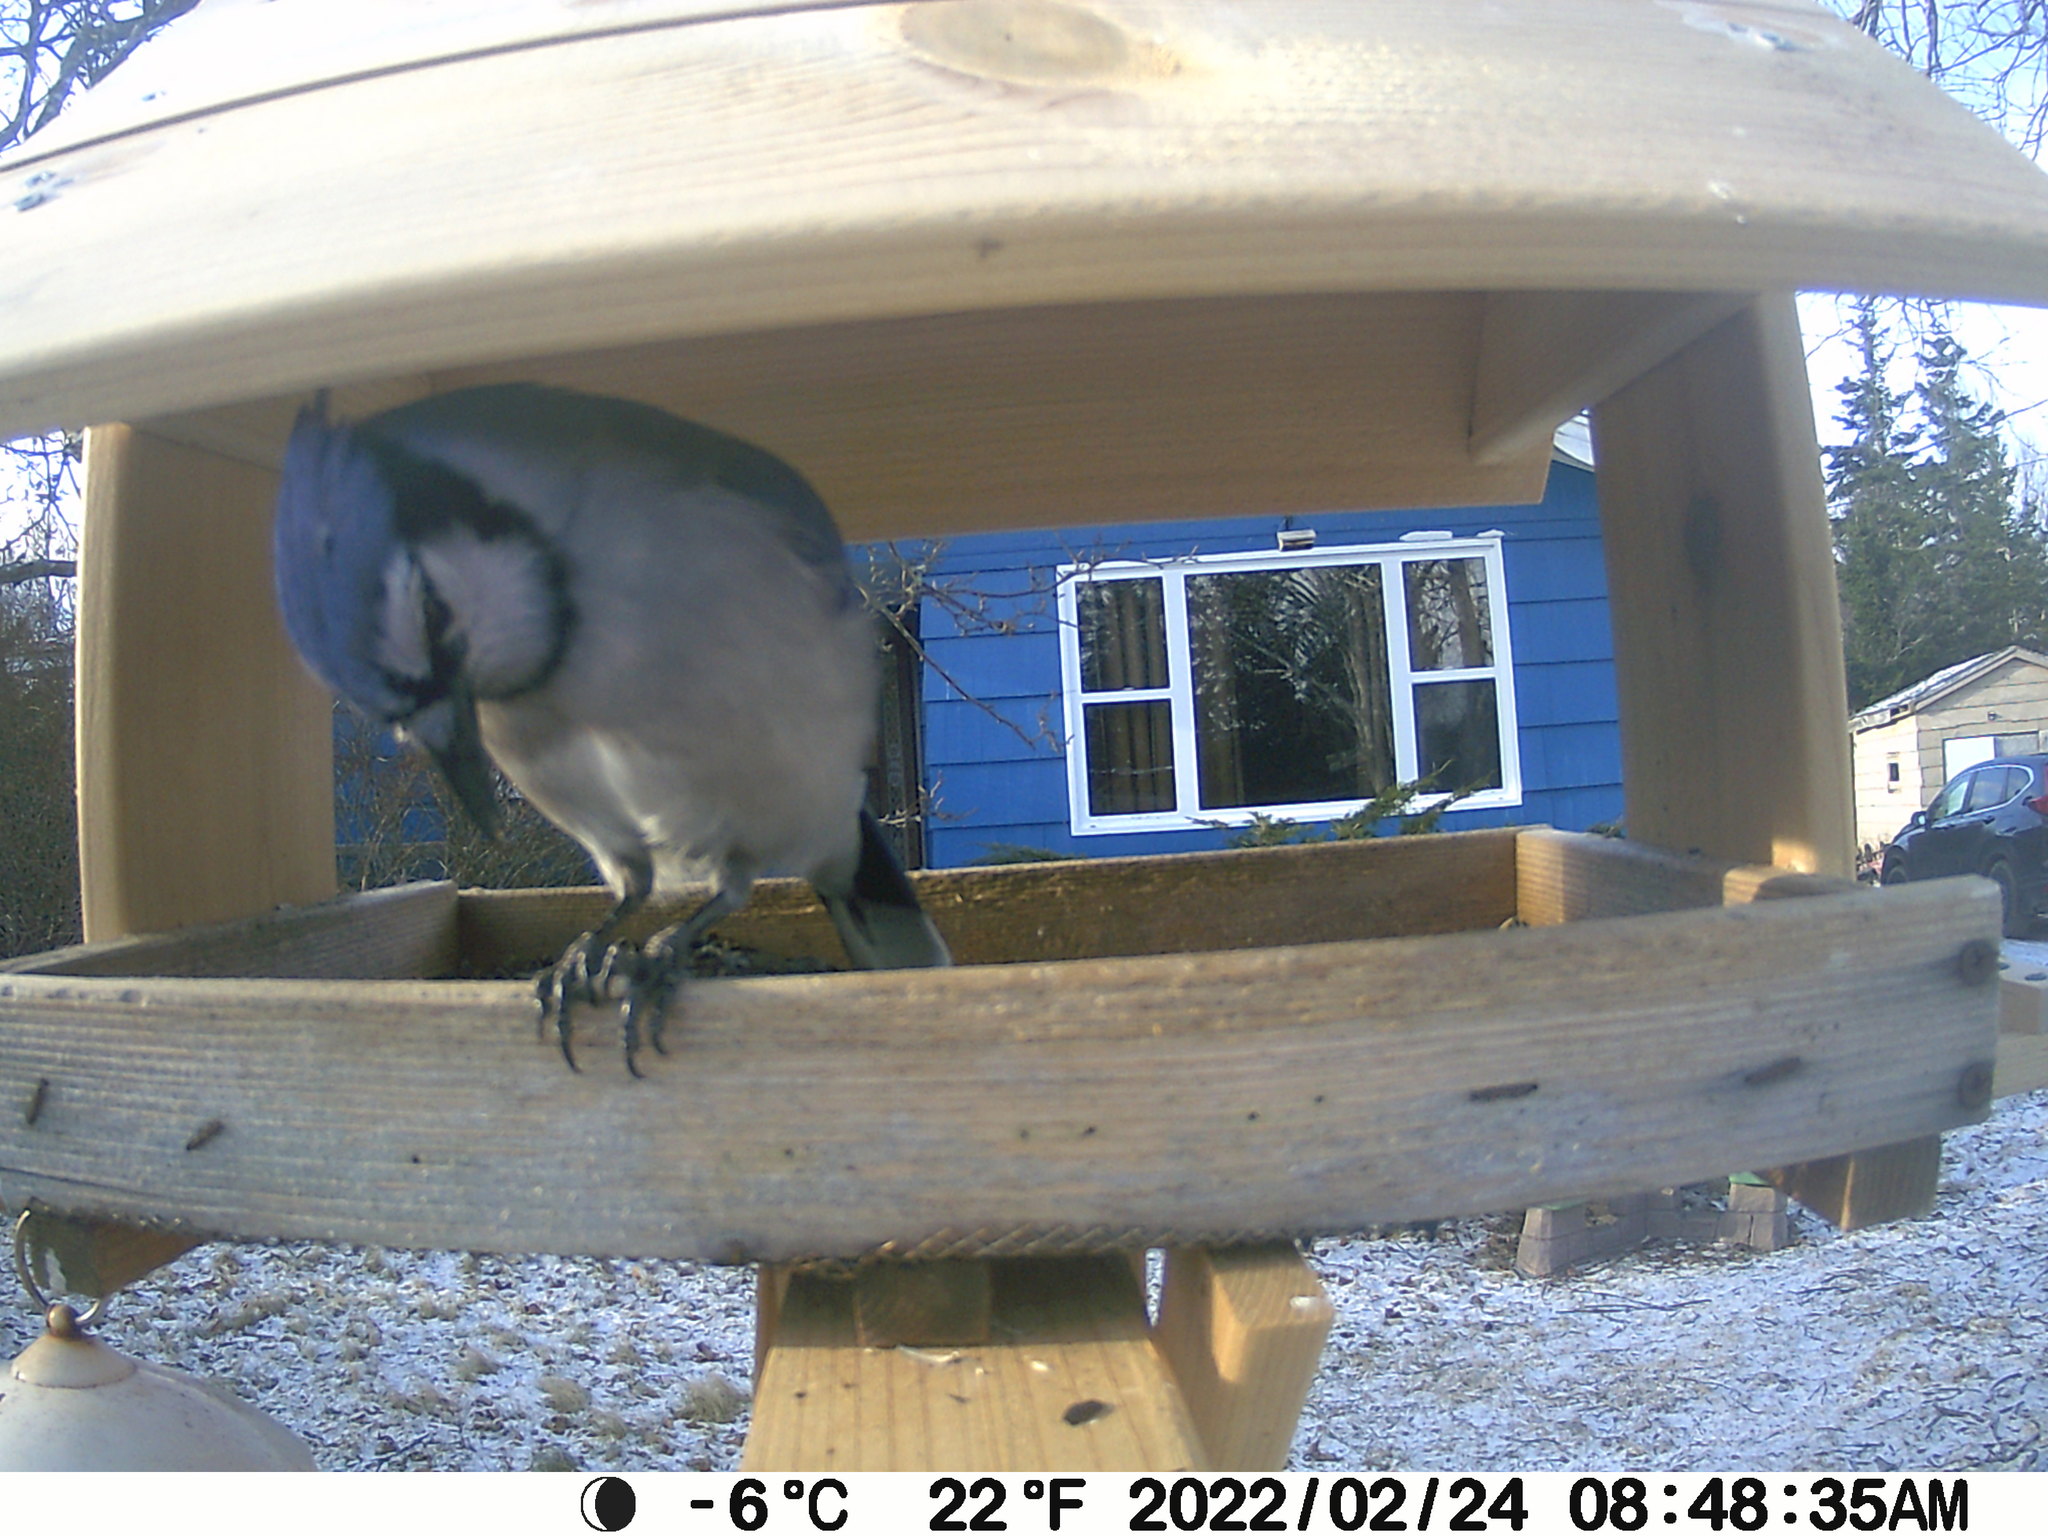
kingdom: Animalia
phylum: Chordata
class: Aves
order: Passeriformes
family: Corvidae
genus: Cyanocitta
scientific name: Cyanocitta cristata
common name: Blue jay
